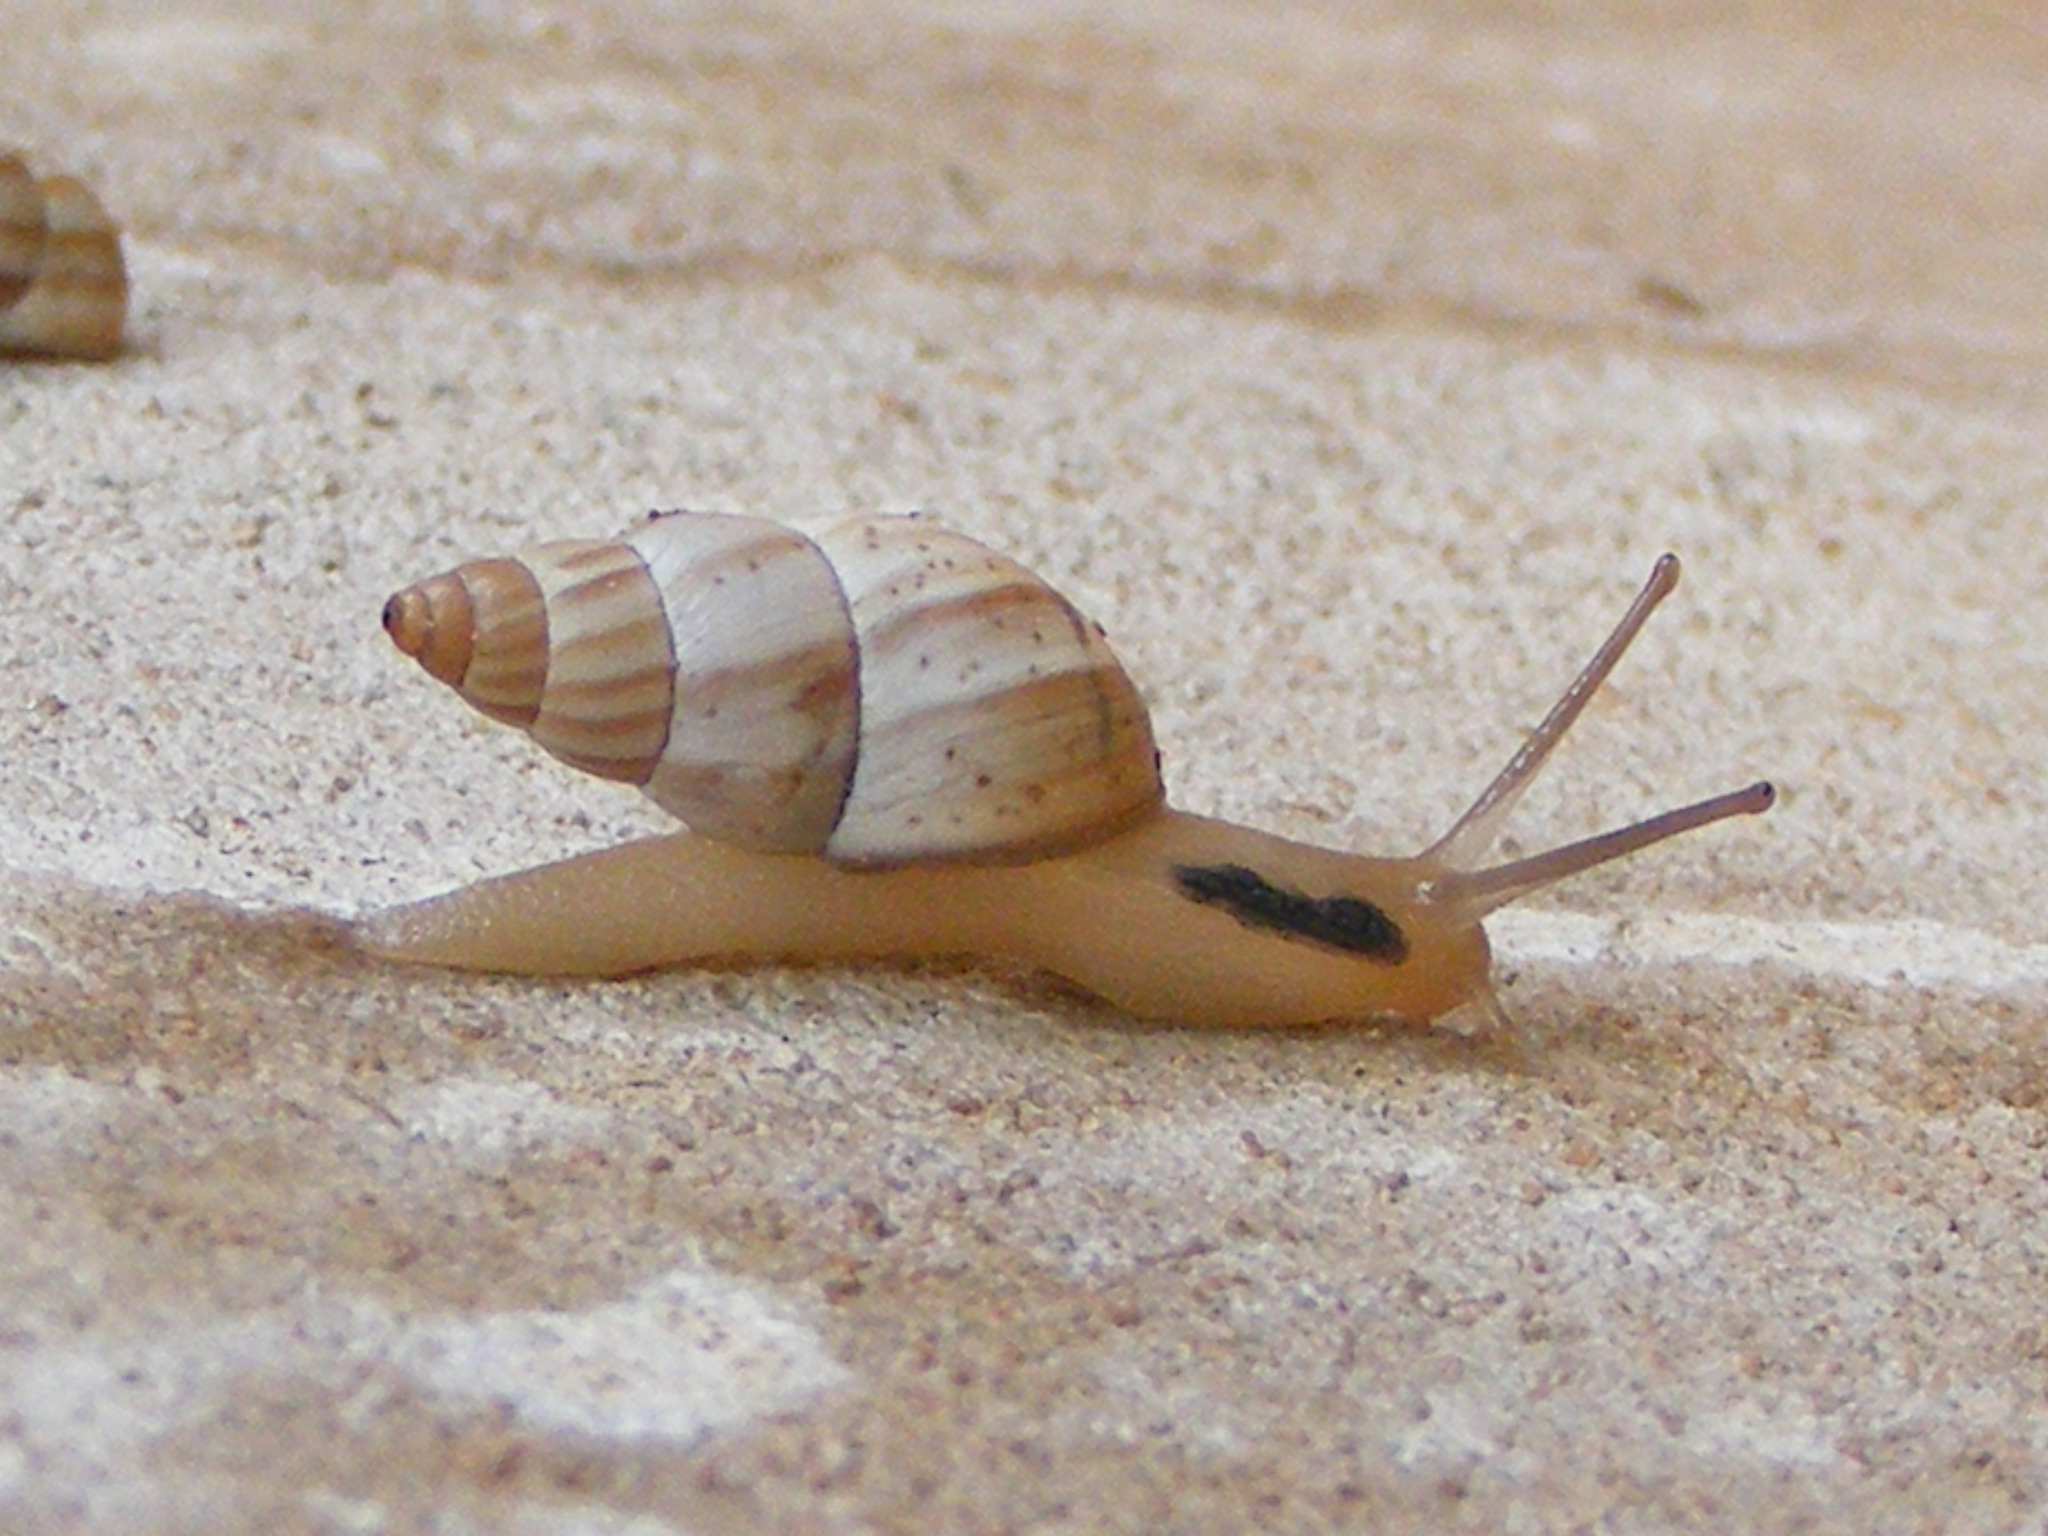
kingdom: Animalia
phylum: Mollusca
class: Gastropoda
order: Stylommatophora
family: Cerastidae
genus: Rachis
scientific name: Rachis jejuna
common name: Savanna porcelain snail
